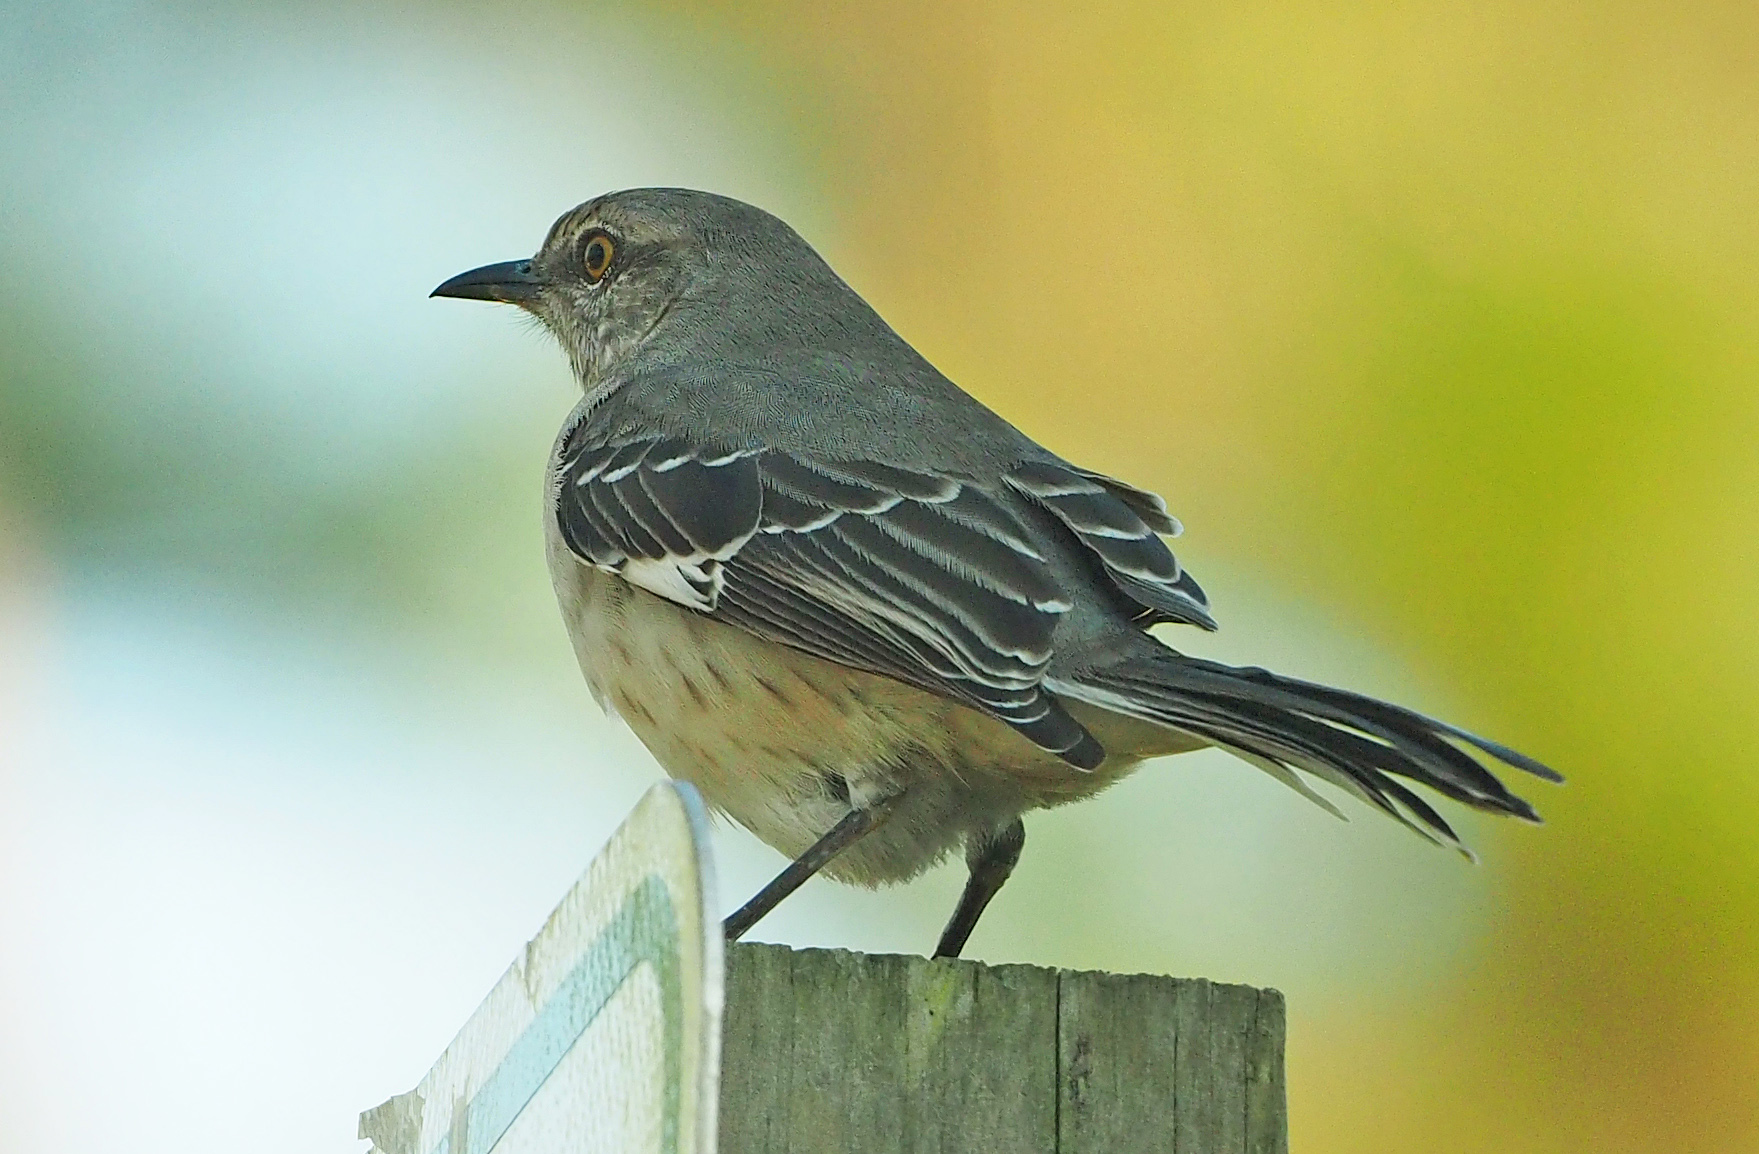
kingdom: Animalia
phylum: Chordata
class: Aves
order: Passeriformes
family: Mimidae
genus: Mimus
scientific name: Mimus polyglottos
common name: Northern mockingbird
